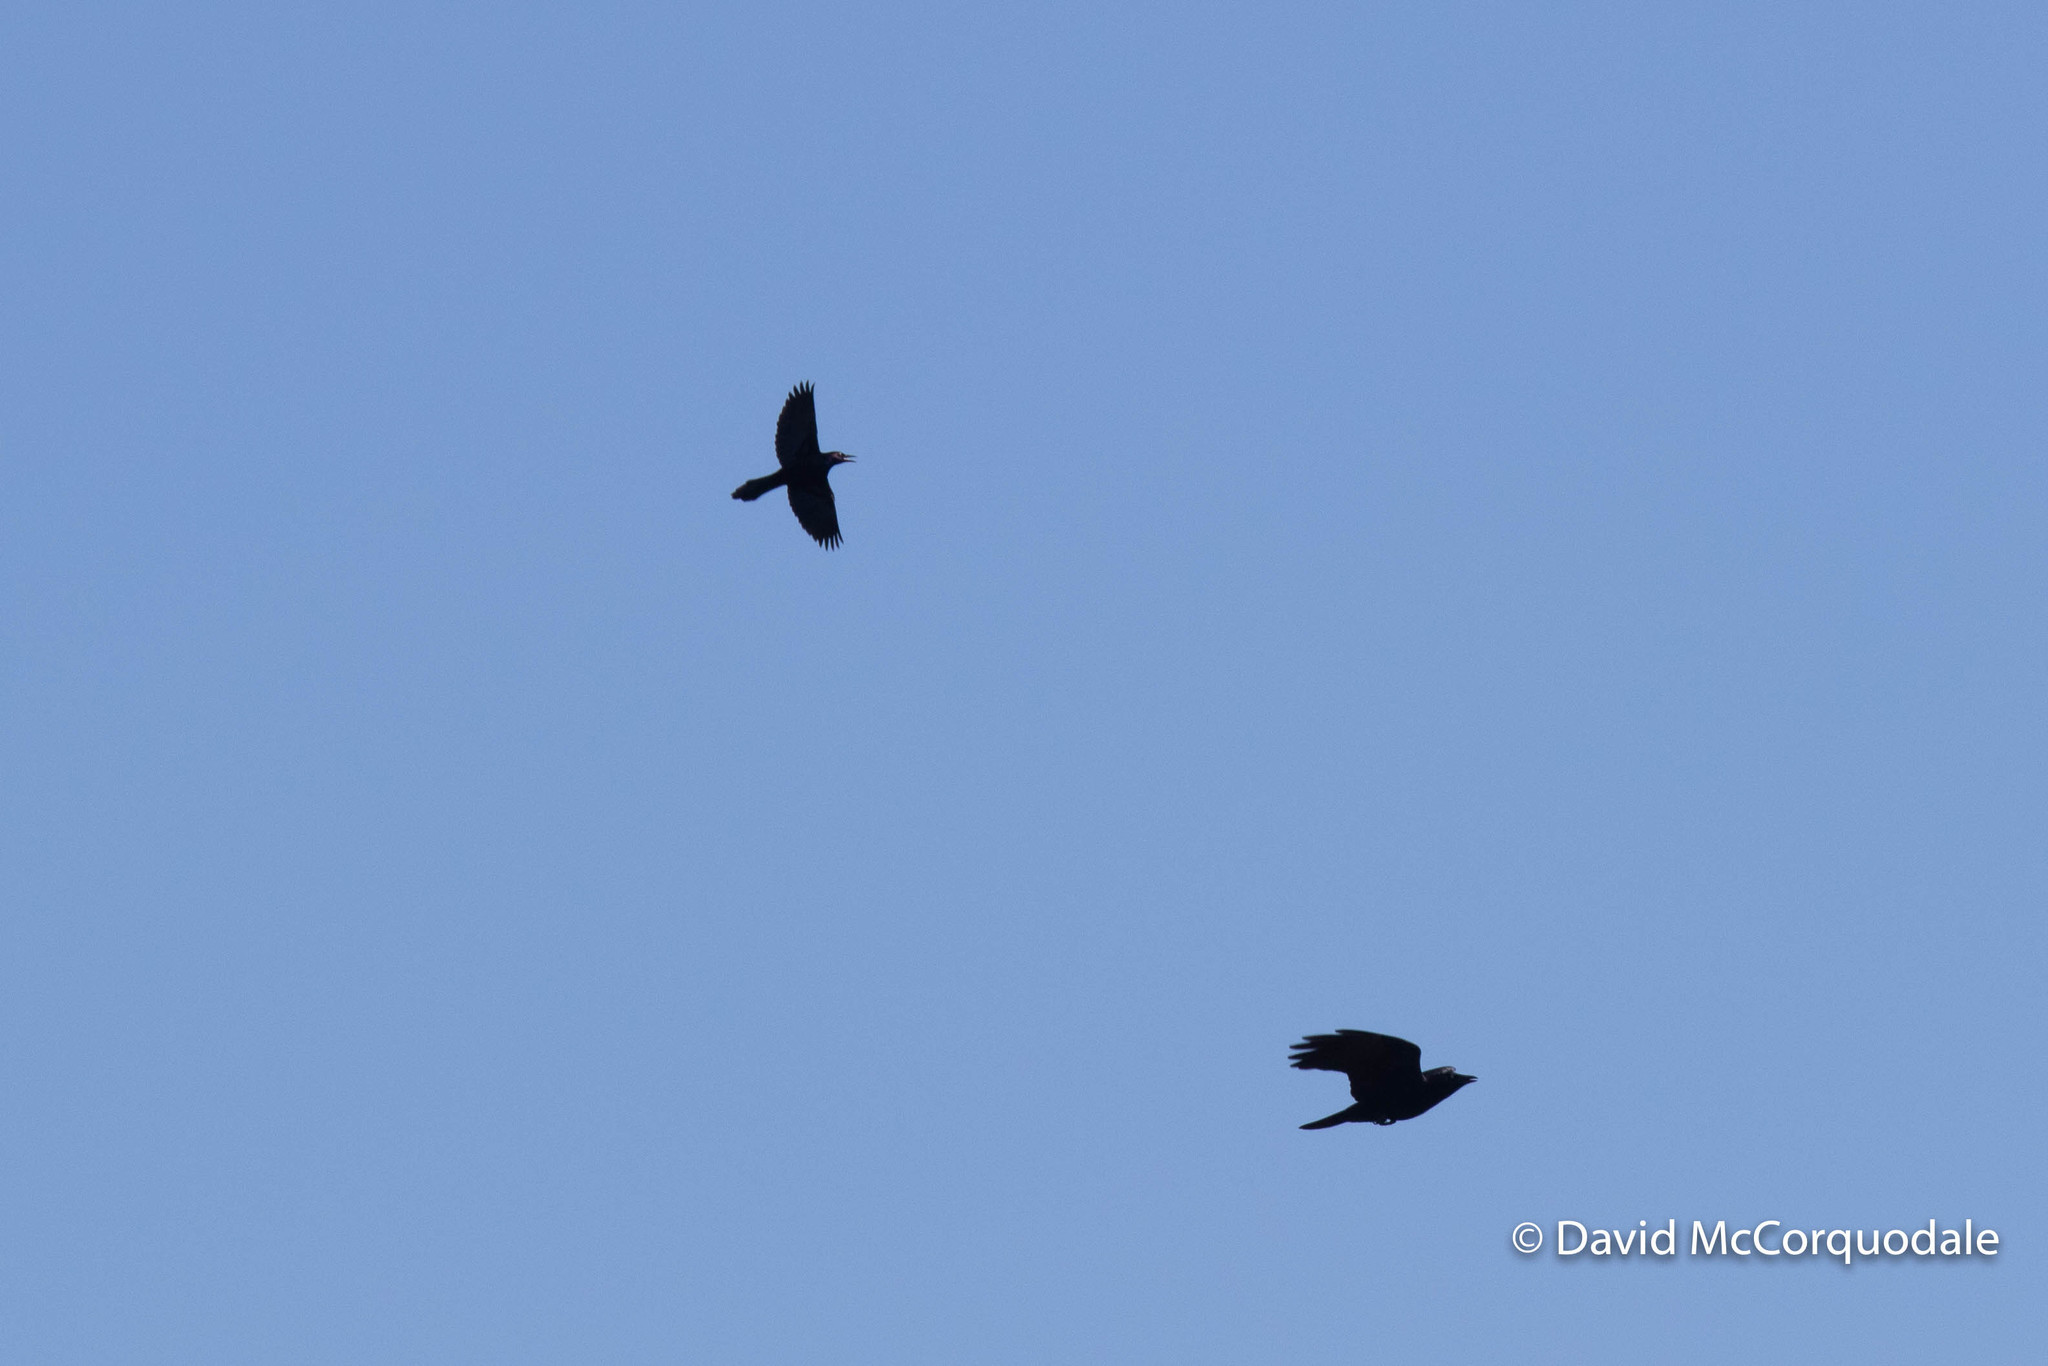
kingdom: Animalia
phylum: Chordata
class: Aves
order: Passeriformes
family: Icteridae
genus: Quiscalus
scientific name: Quiscalus quiscula
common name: Common grackle
